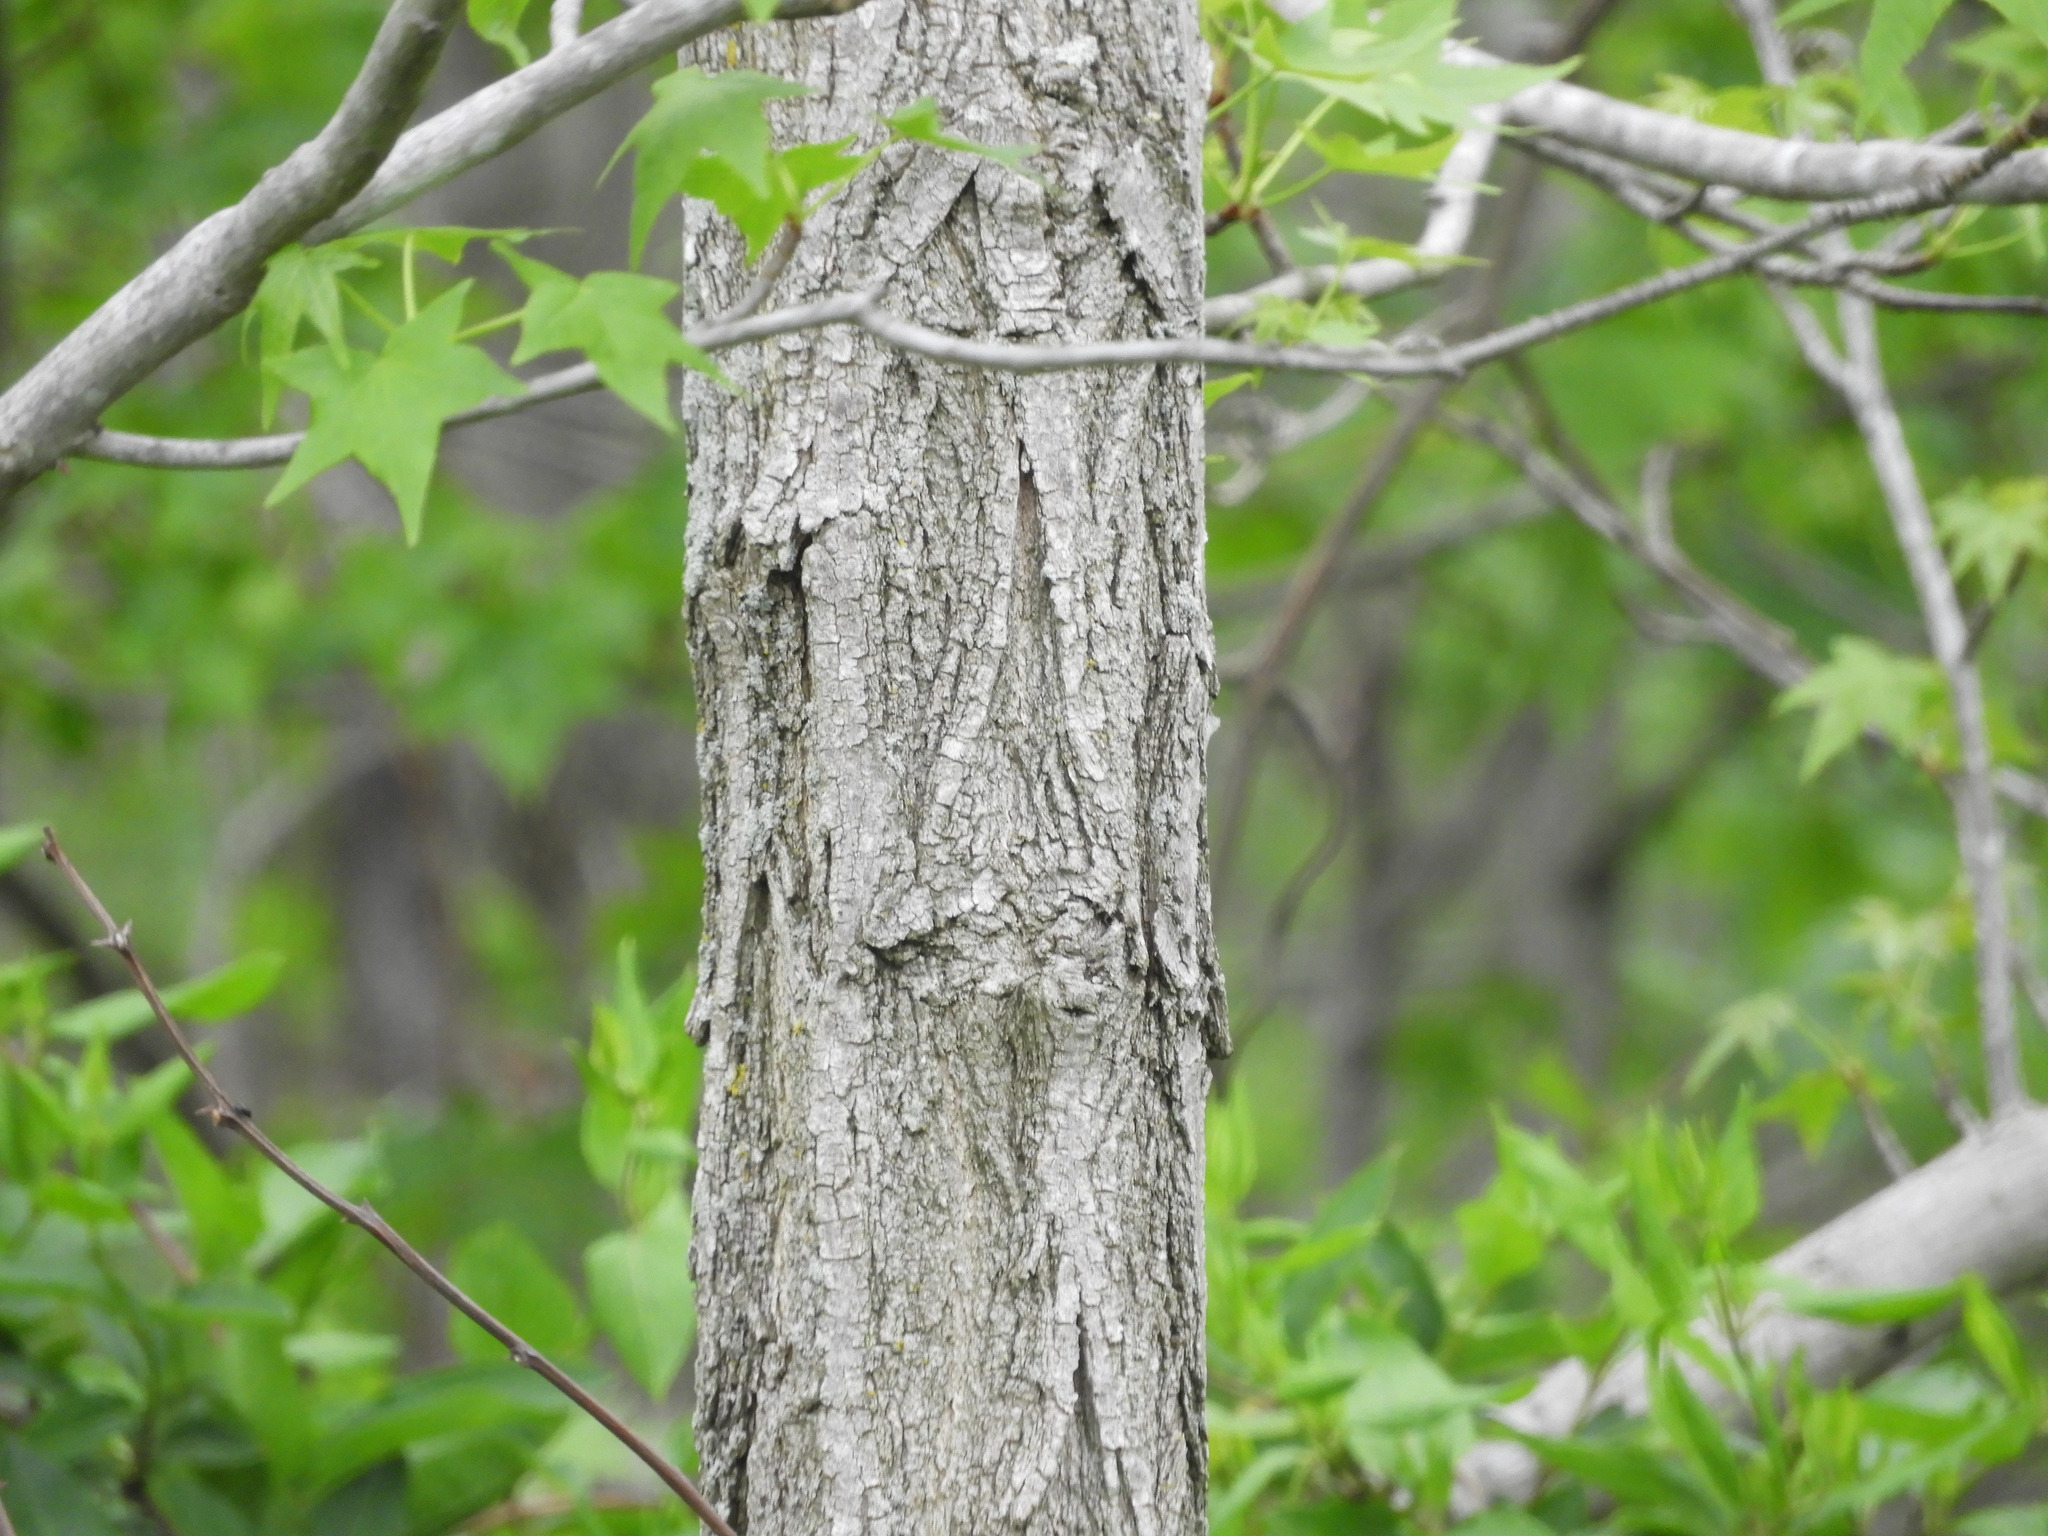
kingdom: Plantae
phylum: Tracheophyta
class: Magnoliopsida
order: Fabales
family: Fabaceae
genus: Robinia
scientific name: Robinia pseudoacacia
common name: Black locust
